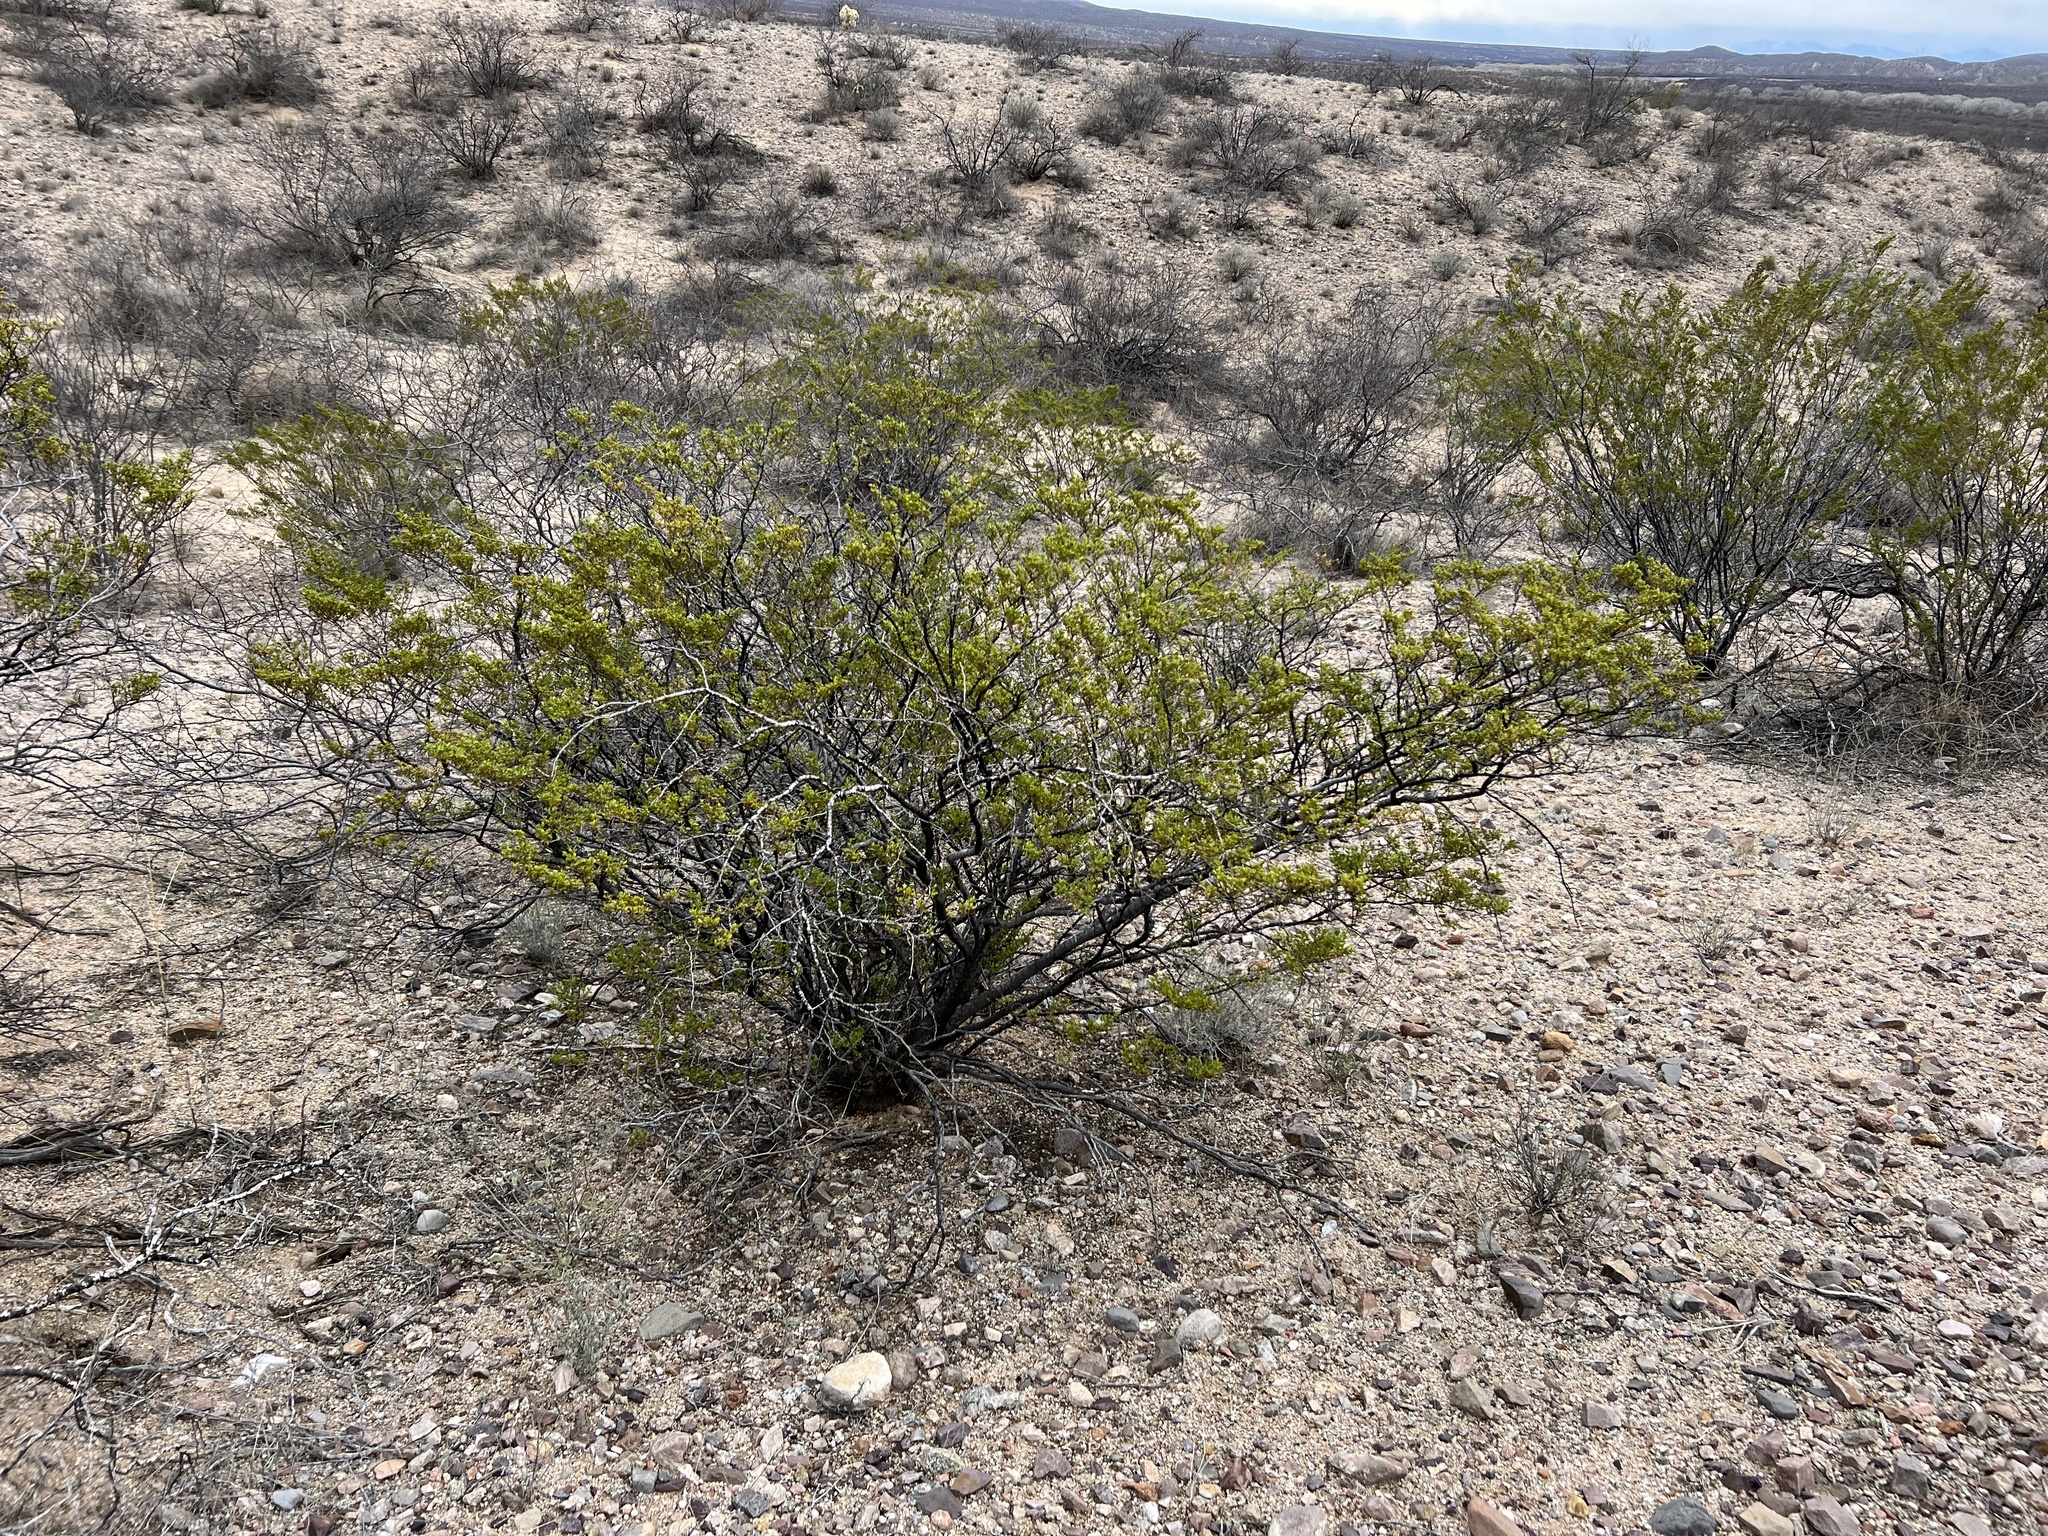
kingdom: Plantae
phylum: Tracheophyta
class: Magnoliopsida
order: Zygophyllales
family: Zygophyllaceae
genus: Larrea
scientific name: Larrea tridentata
